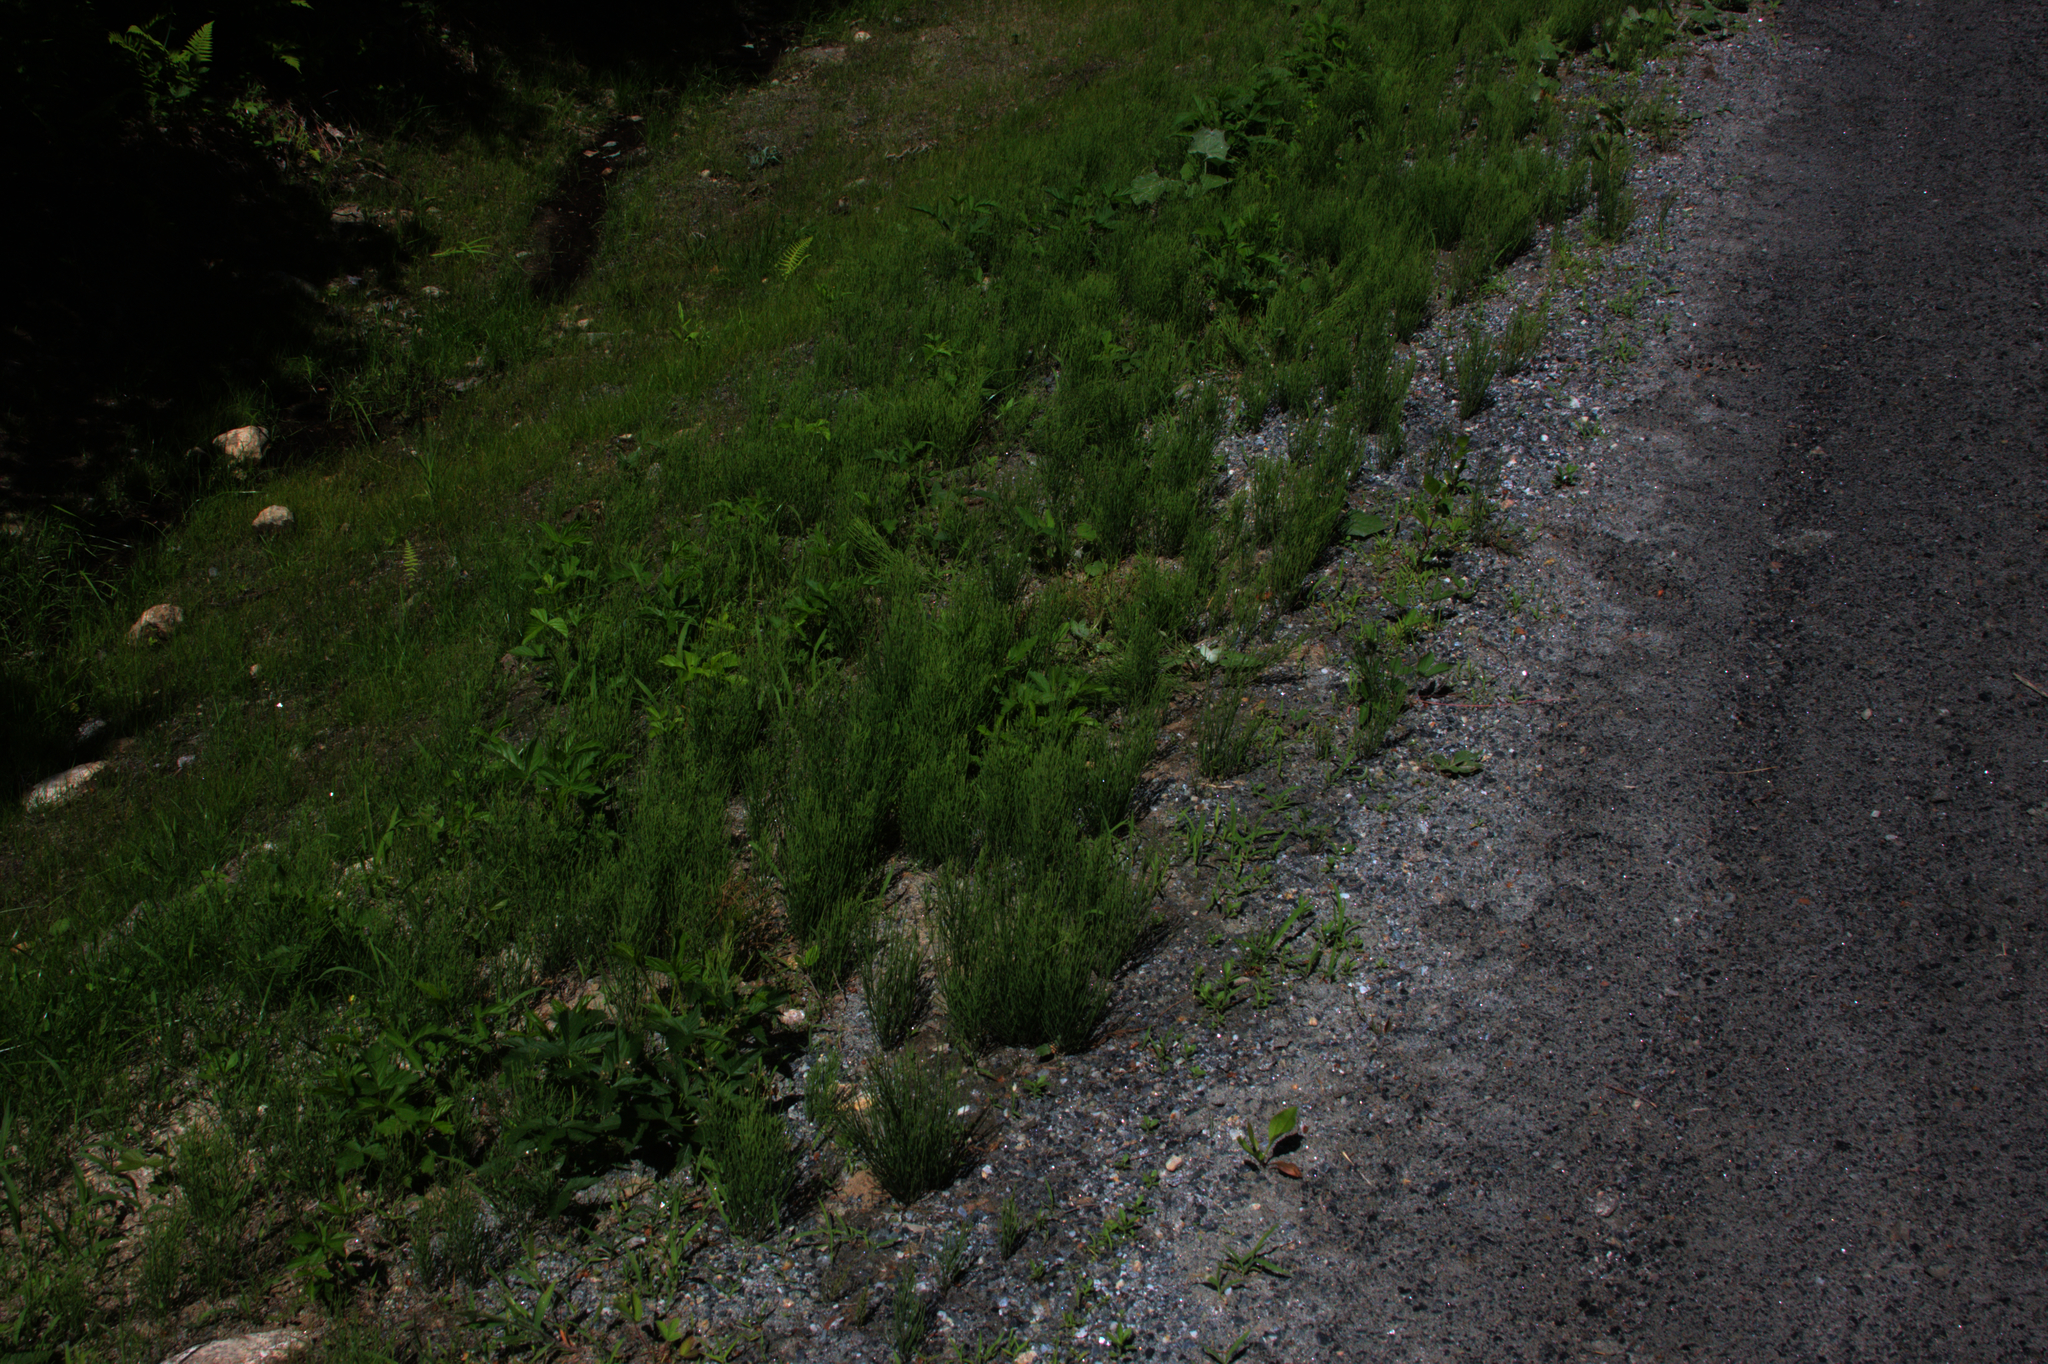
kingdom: Plantae
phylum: Tracheophyta
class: Polypodiopsida
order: Equisetales
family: Equisetaceae
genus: Equisetum
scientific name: Equisetum arvense
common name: Field horsetail
